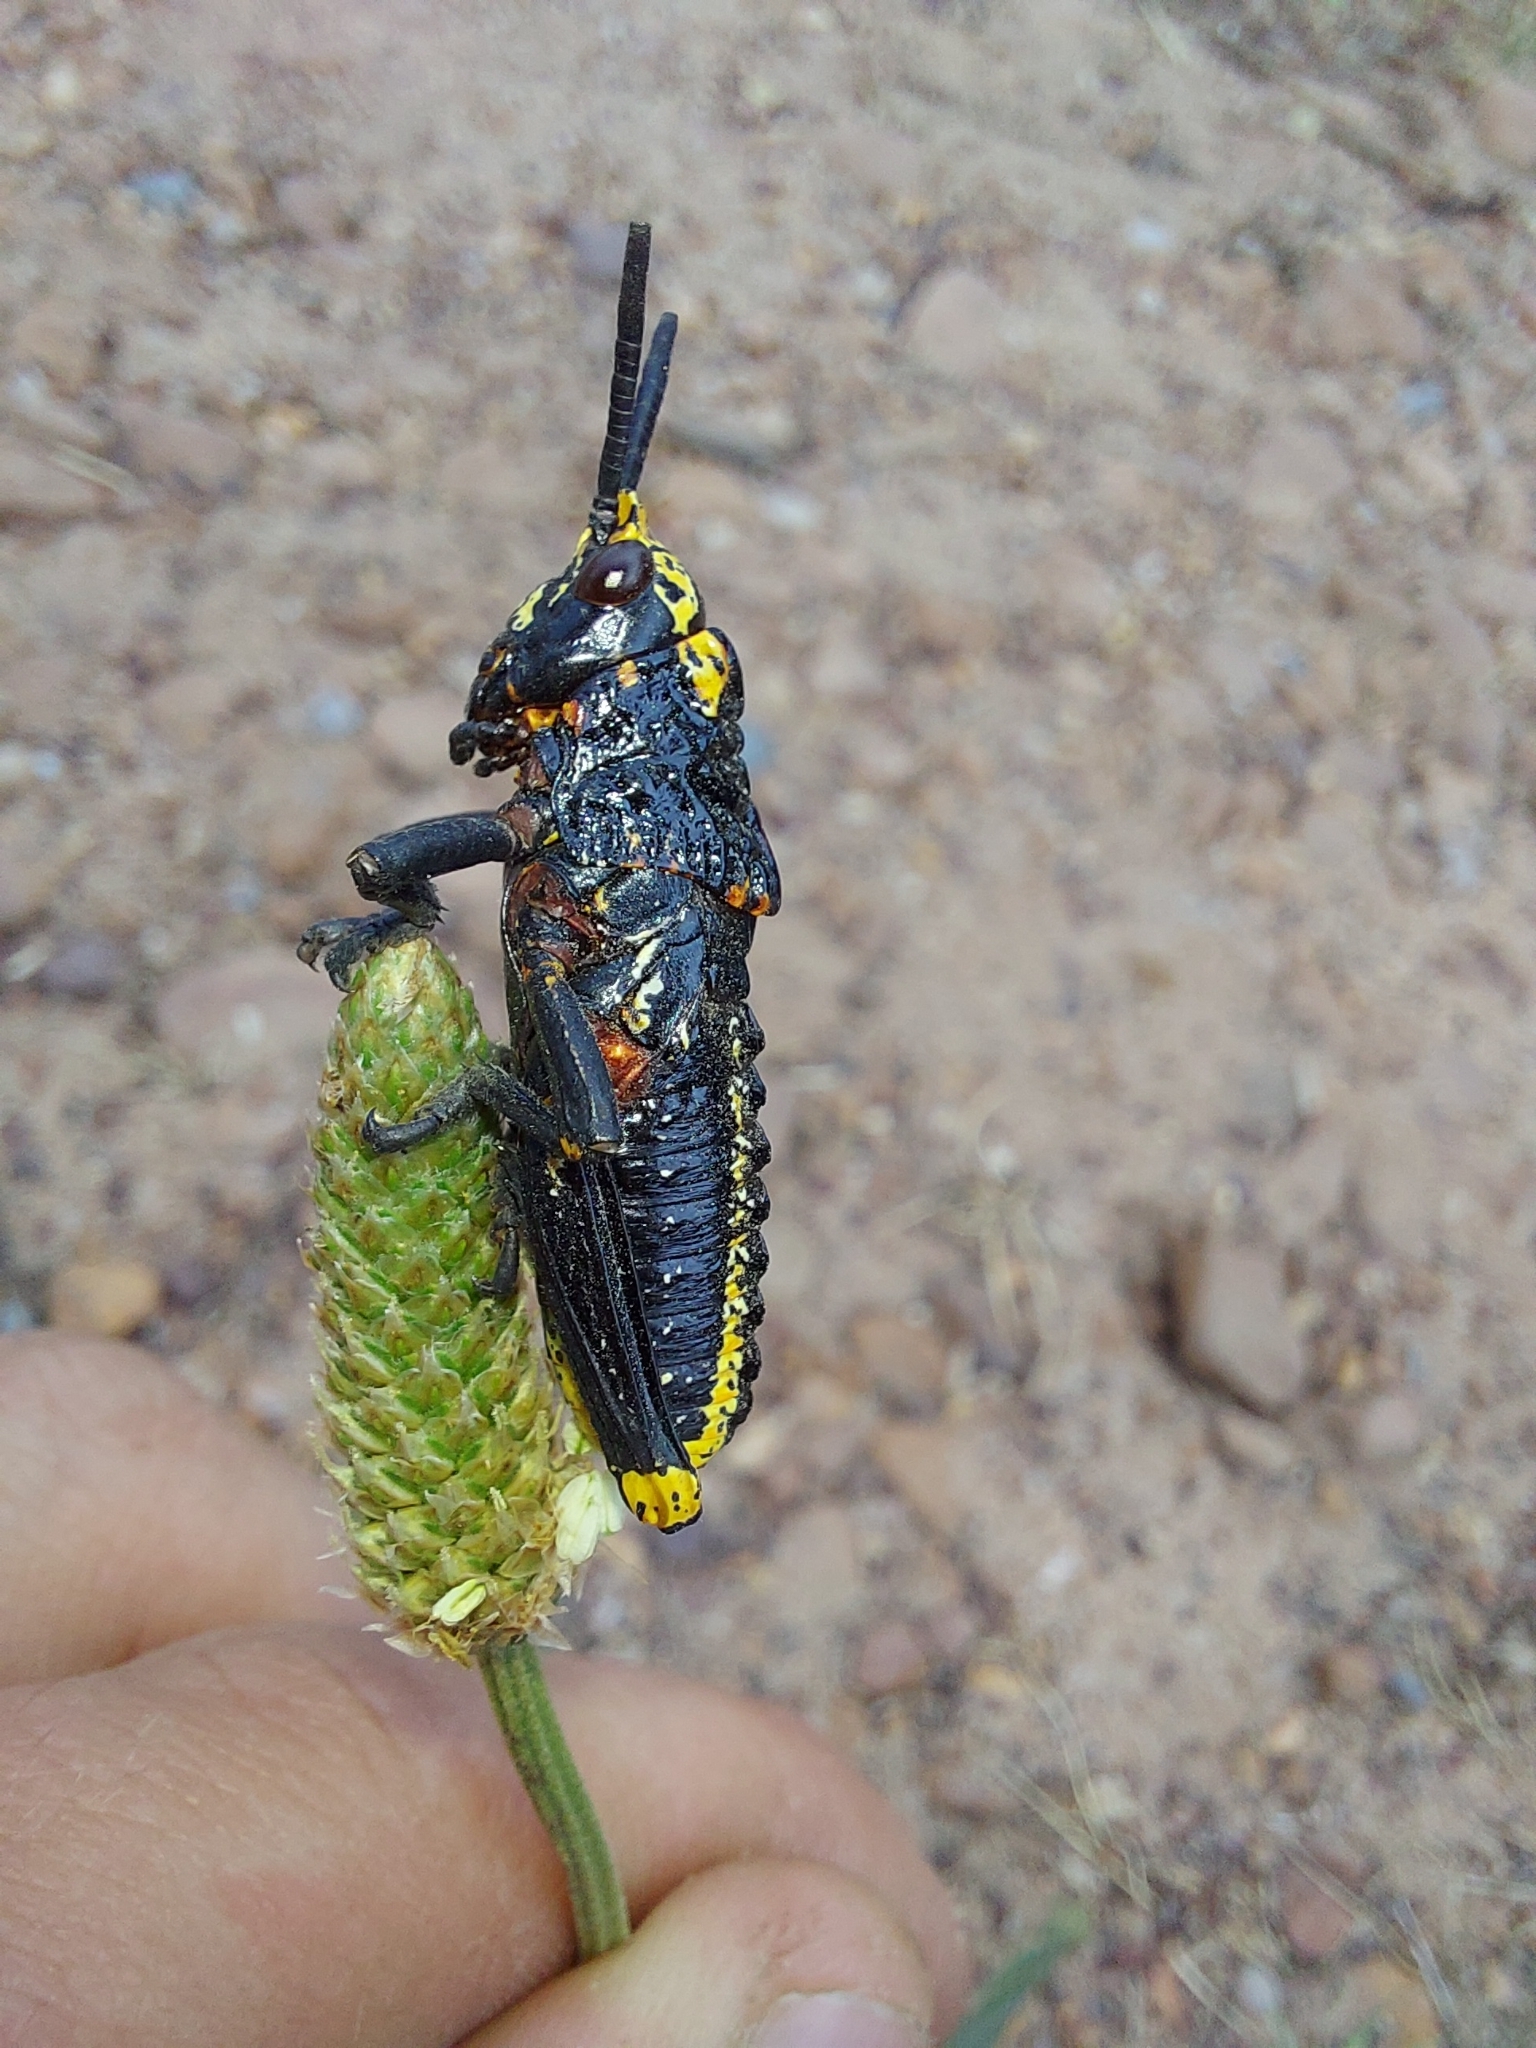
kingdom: Animalia
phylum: Arthropoda
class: Insecta
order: Orthoptera
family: Pyrgomorphidae
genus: Dictyophorus
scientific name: Dictyophorus spumans
